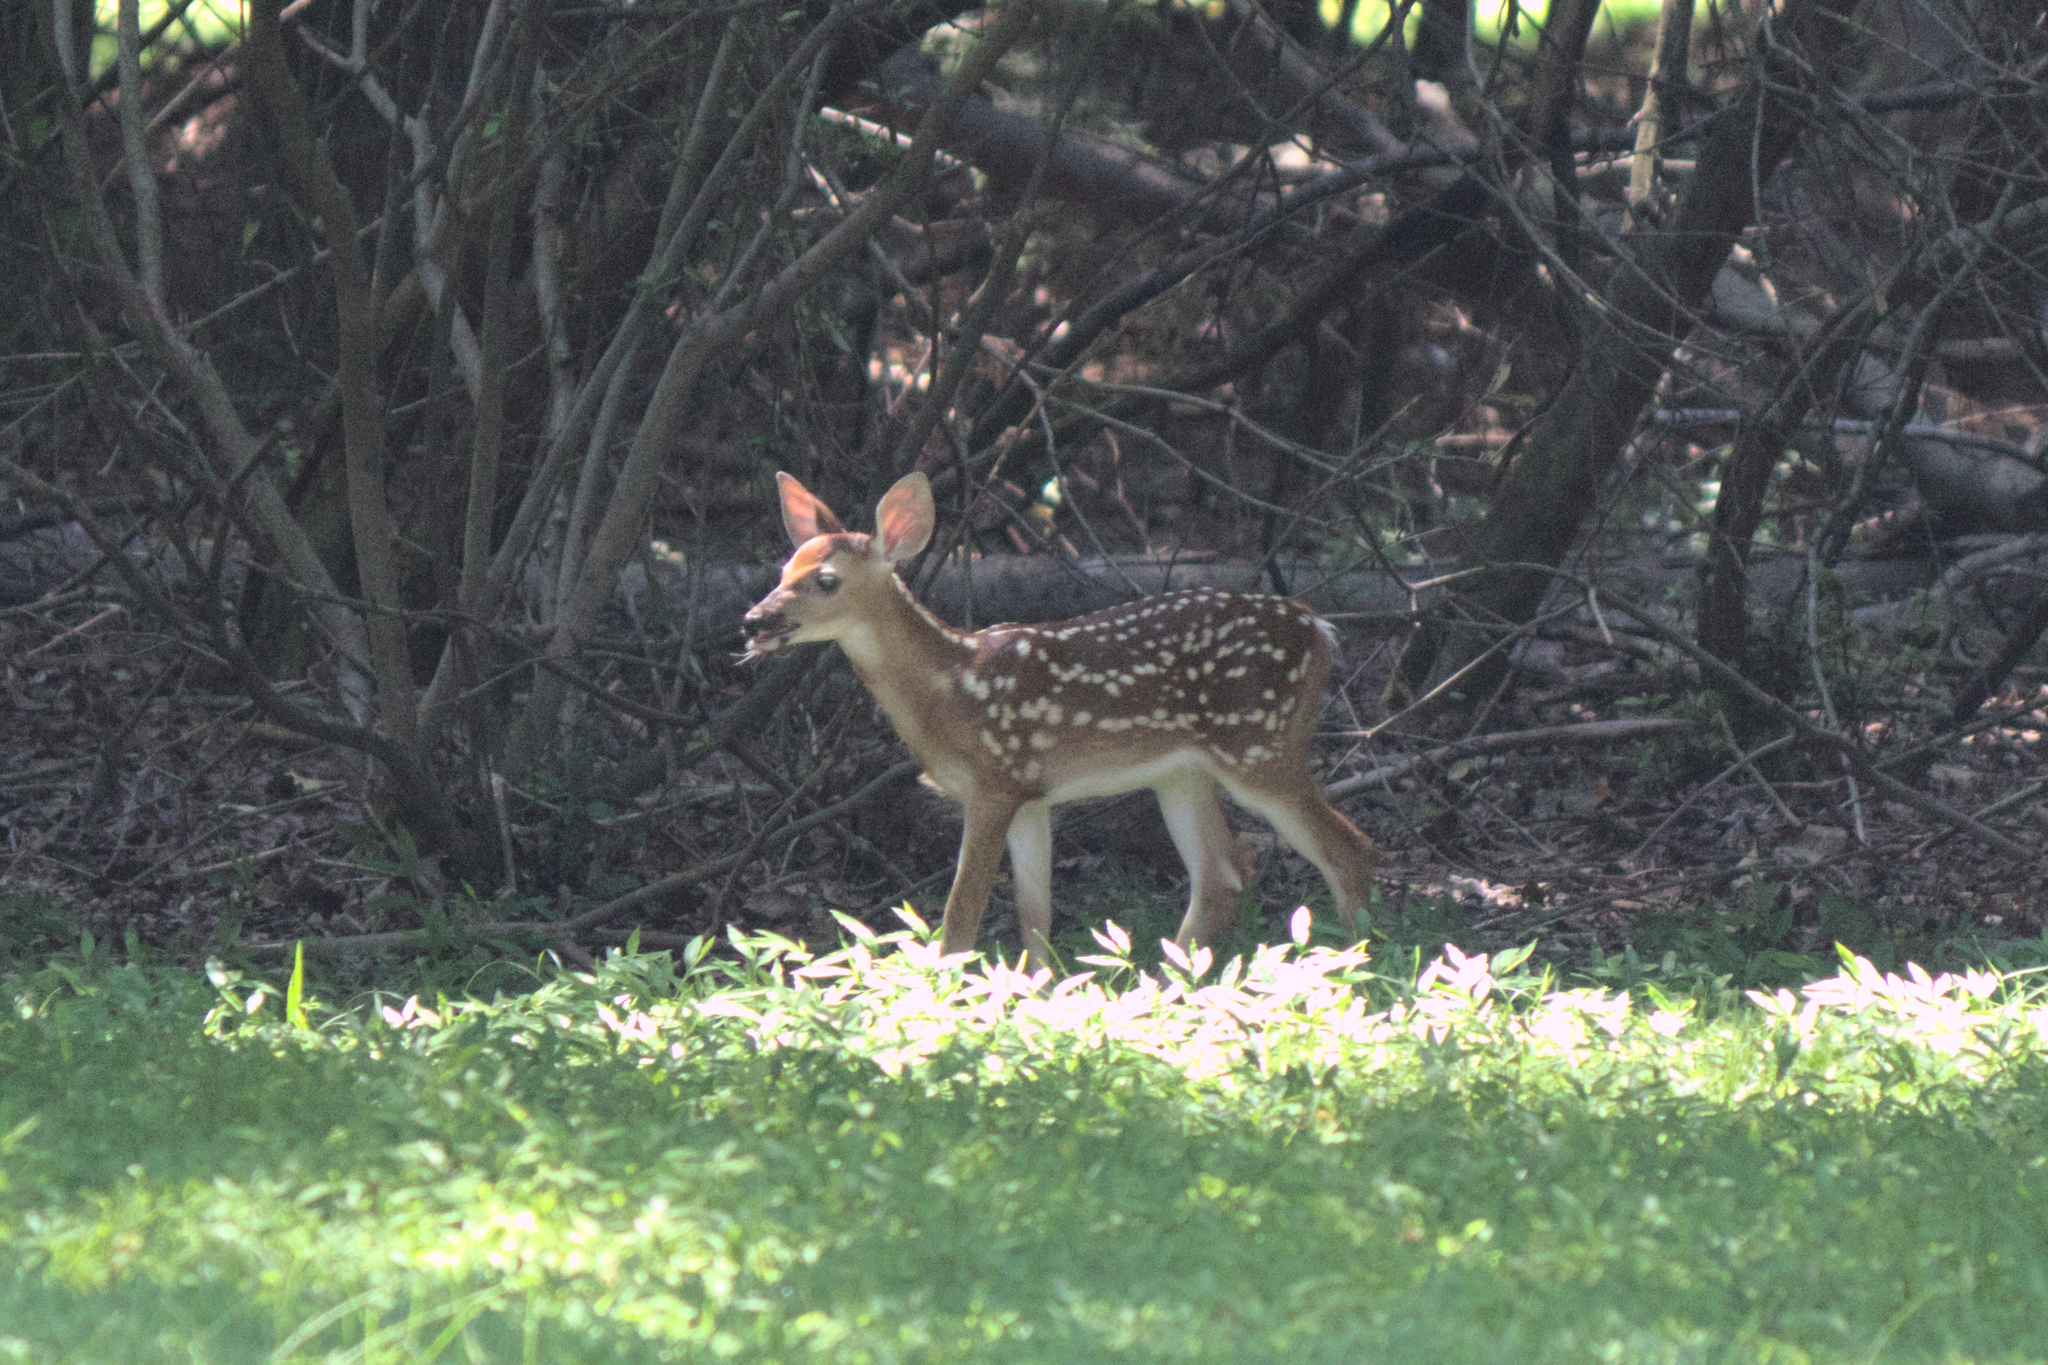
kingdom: Animalia
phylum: Chordata
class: Mammalia
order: Artiodactyla
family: Cervidae
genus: Odocoileus
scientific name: Odocoileus virginianus
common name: White-tailed deer
